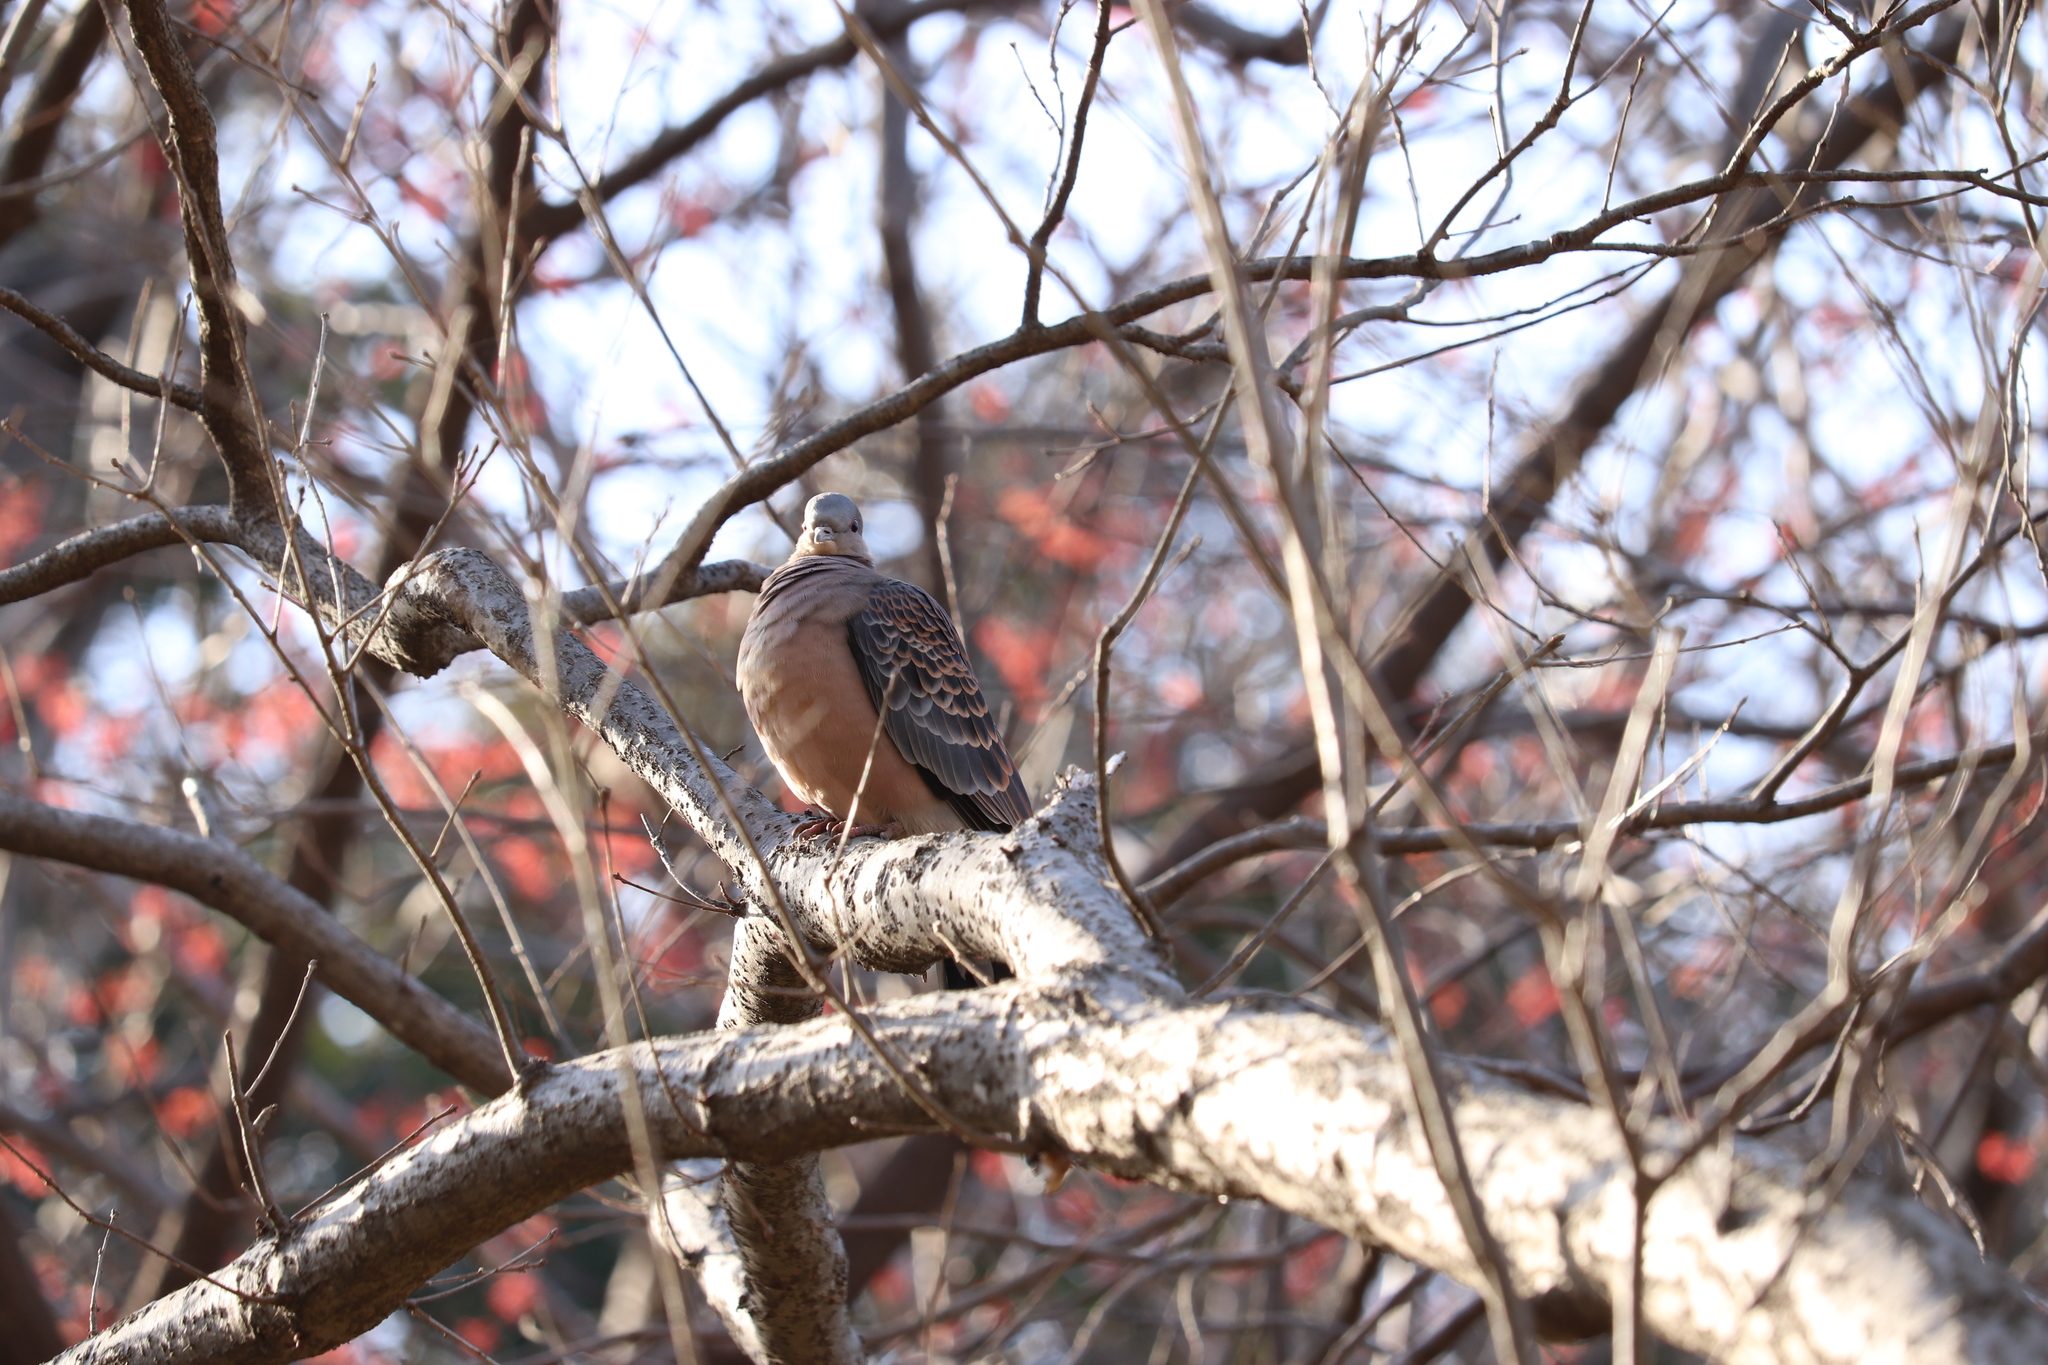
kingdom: Animalia
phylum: Chordata
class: Aves
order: Columbiformes
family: Columbidae
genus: Streptopelia
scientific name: Streptopelia orientalis
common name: Oriental turtle dove
